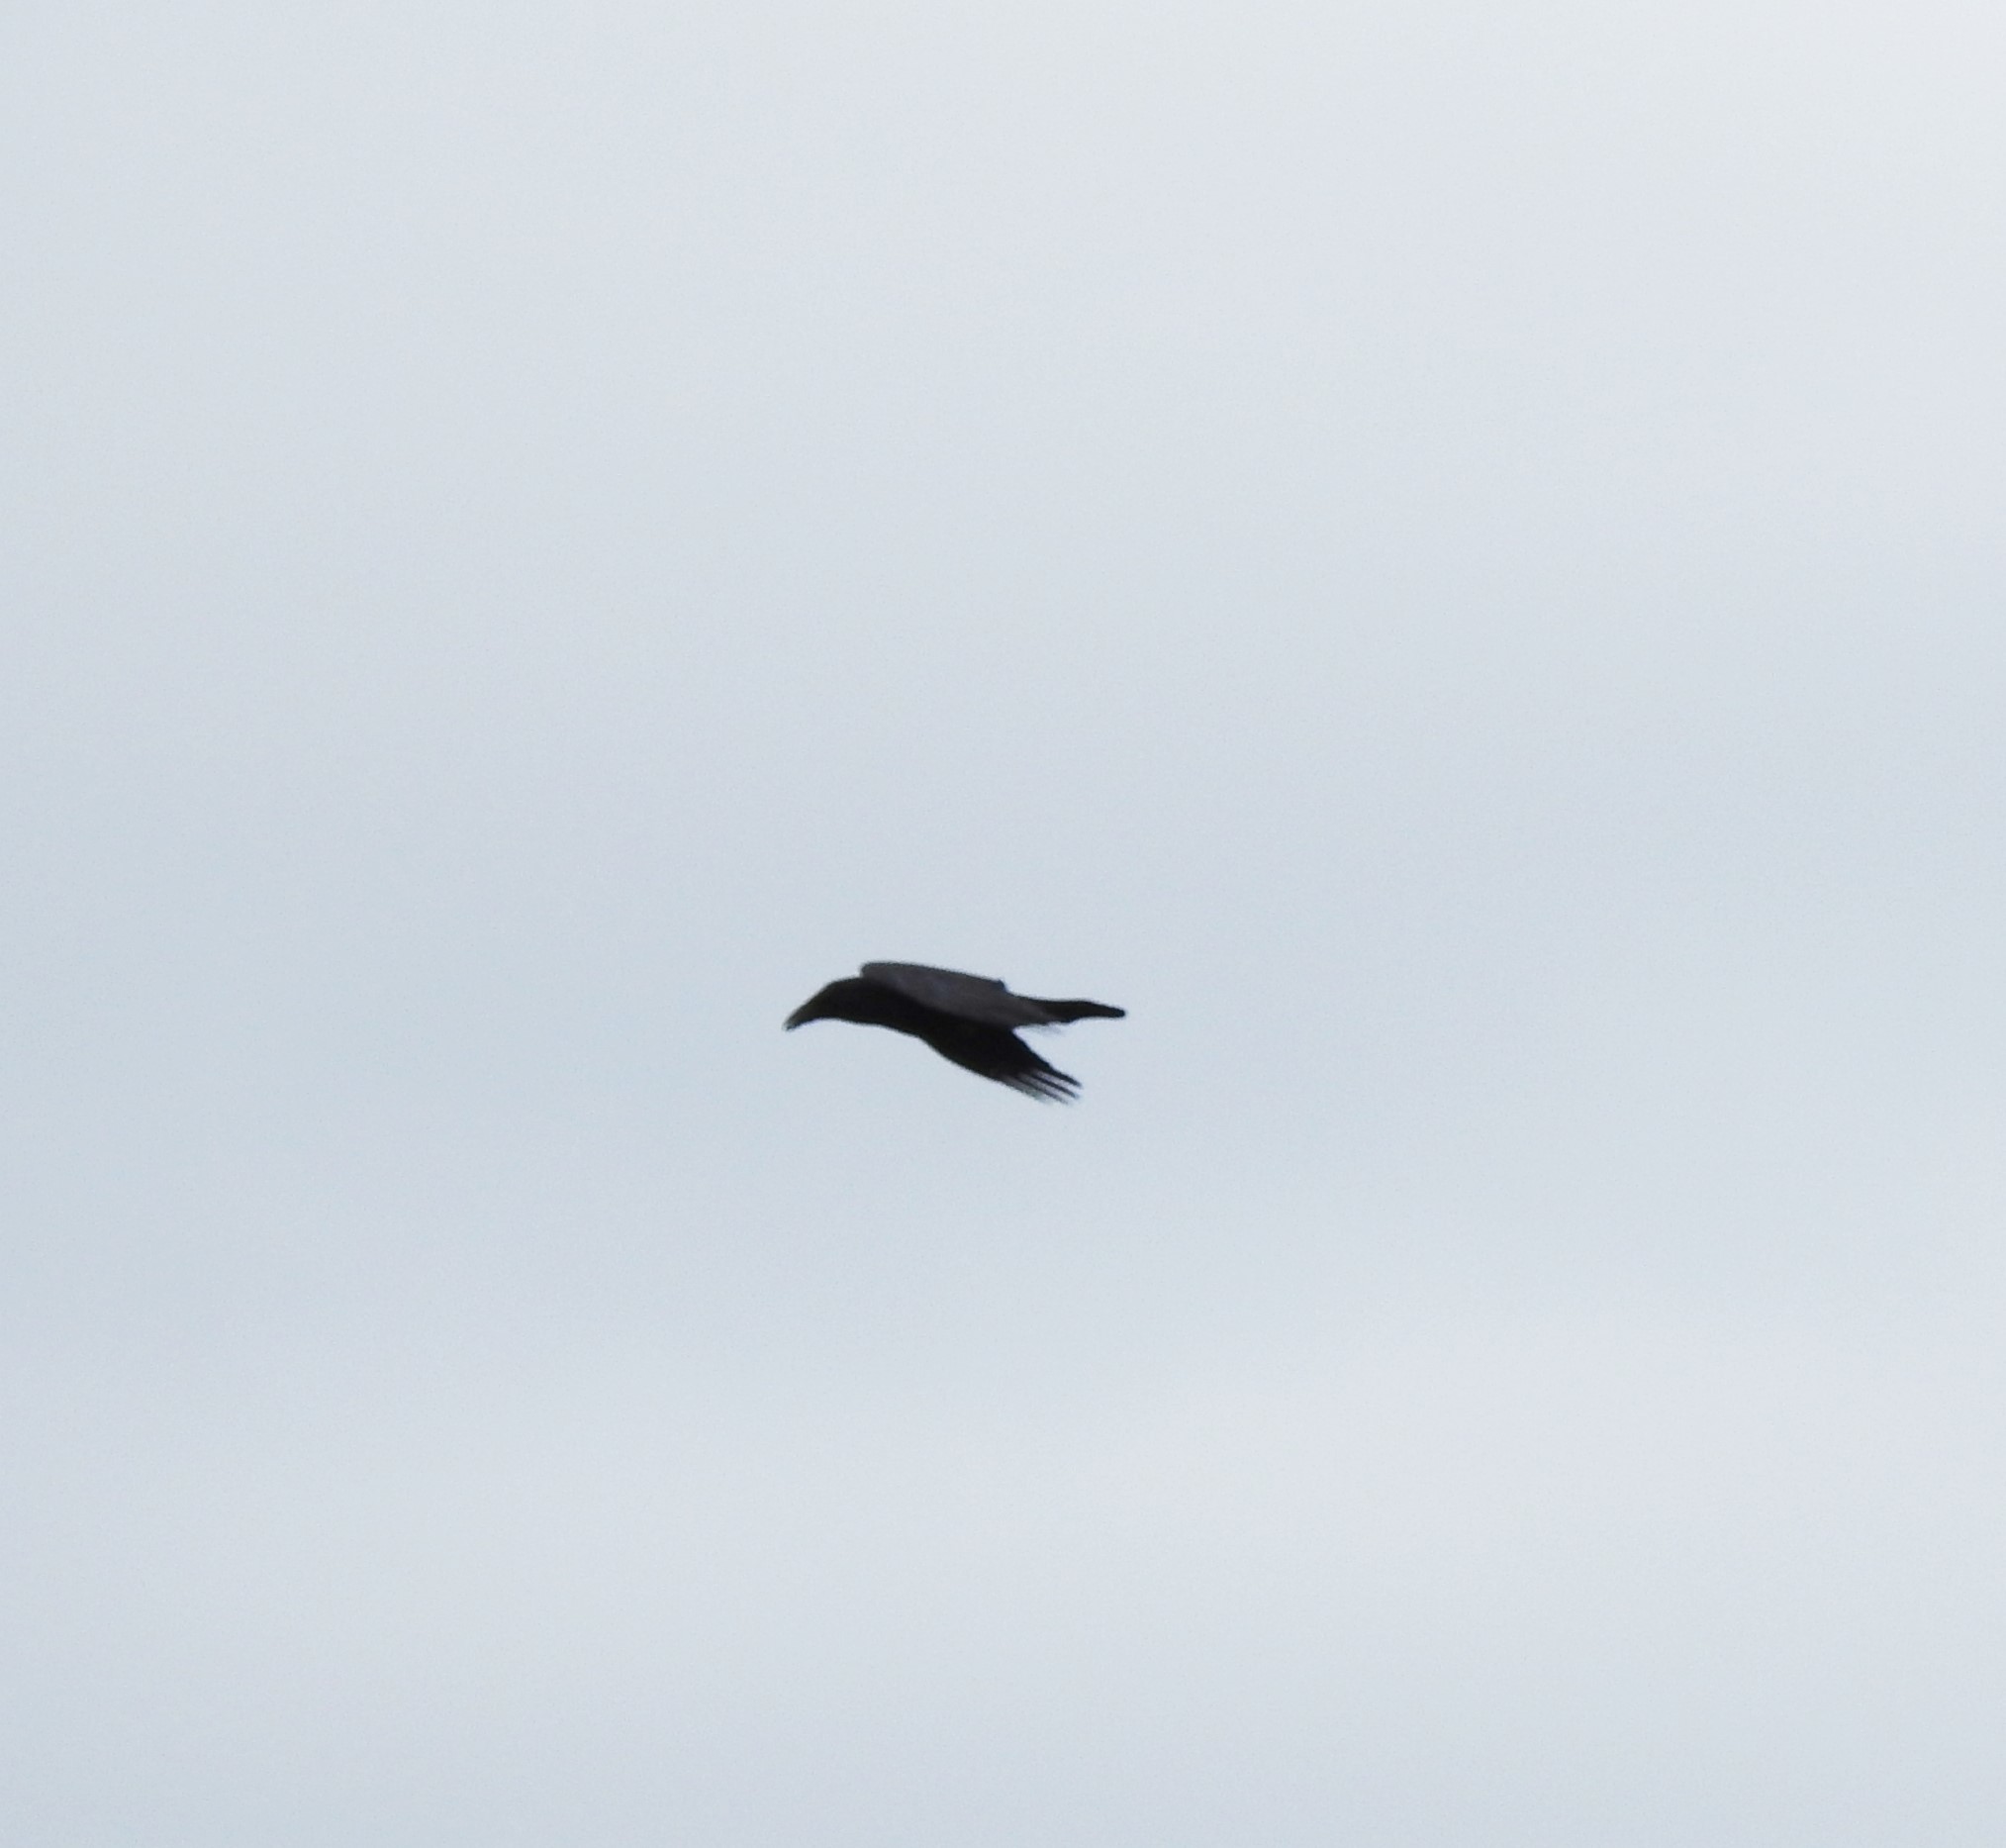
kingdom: Animalia
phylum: Chordata
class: Aves
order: Passeriformes
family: Corvidae
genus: Corvus
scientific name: Corvus corax
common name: Common raven
